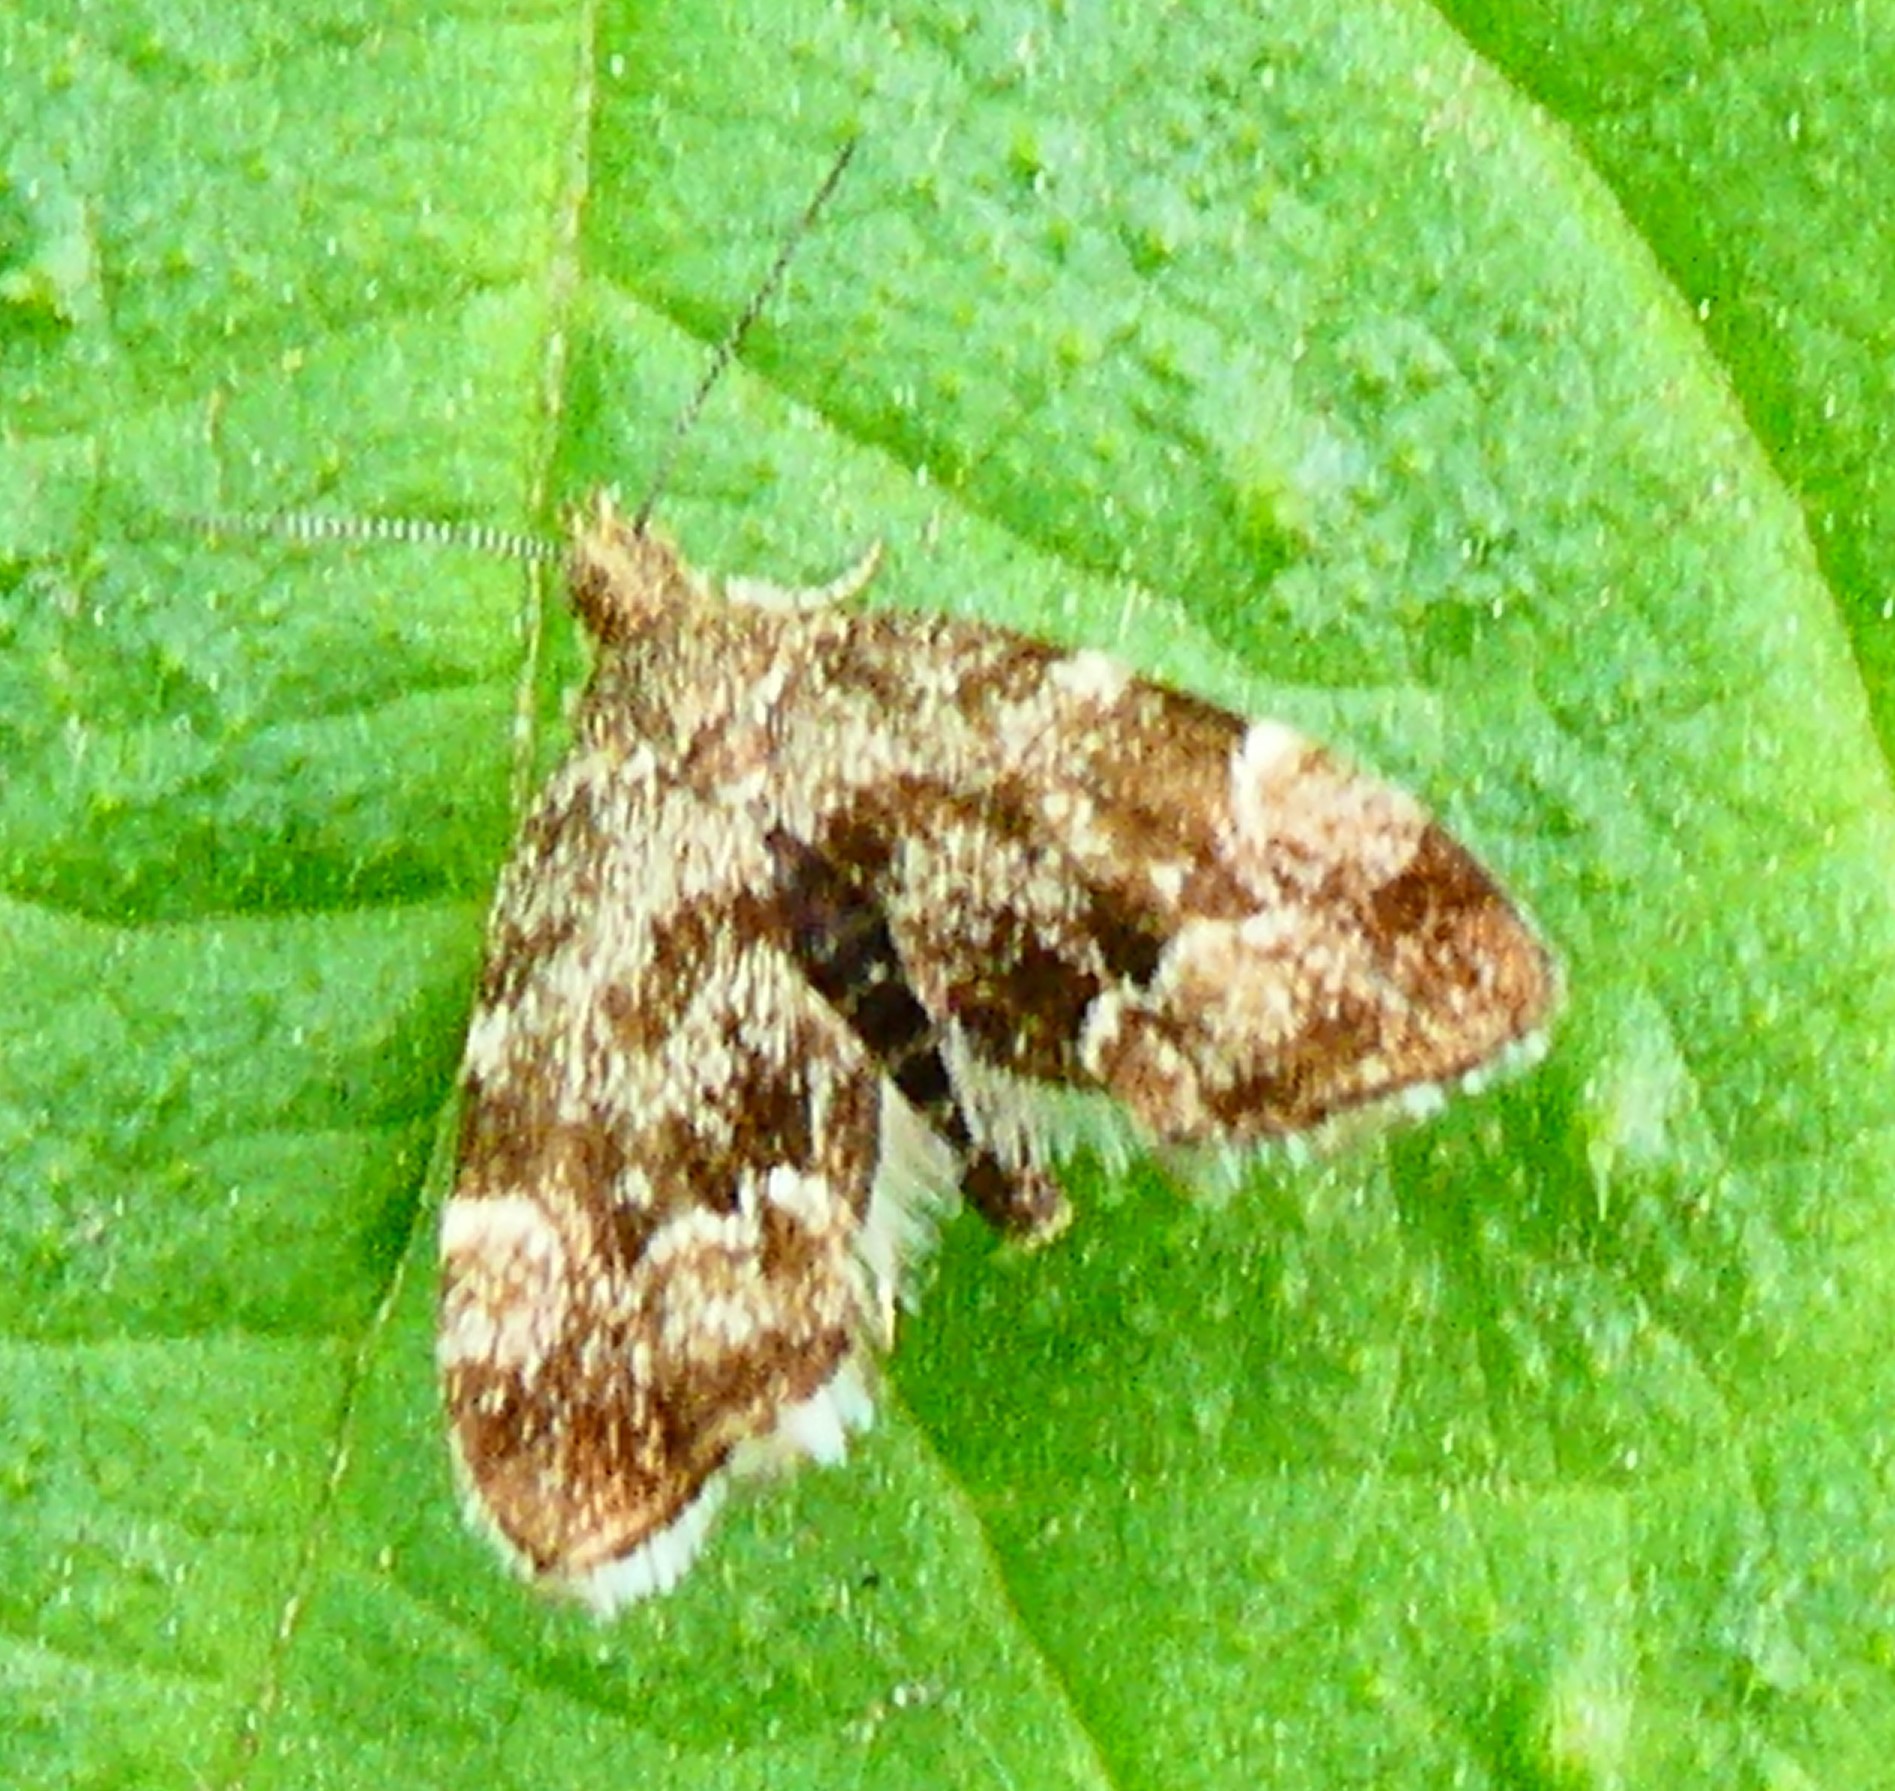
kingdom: Animalia
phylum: Arthropoda
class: Insecta
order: Lepidoptera
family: Choreutidae
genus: Anthophila
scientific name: Anthophila fabriciana
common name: Nettle-tap
